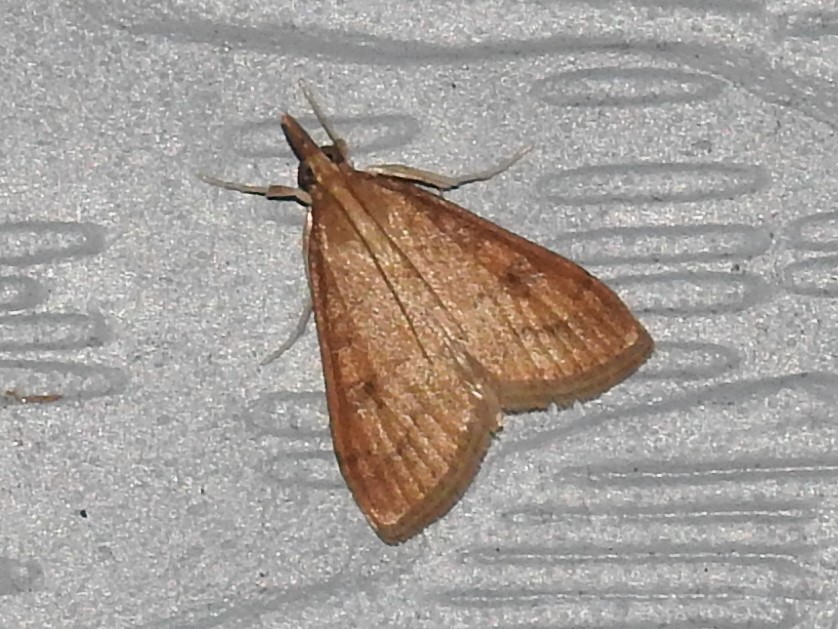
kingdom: Animalia
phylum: Arthropoda
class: Insecta
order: Lepidoptera
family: Crambidae
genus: Udea
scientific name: Udea rubigalis
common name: Celery leaftier moth
